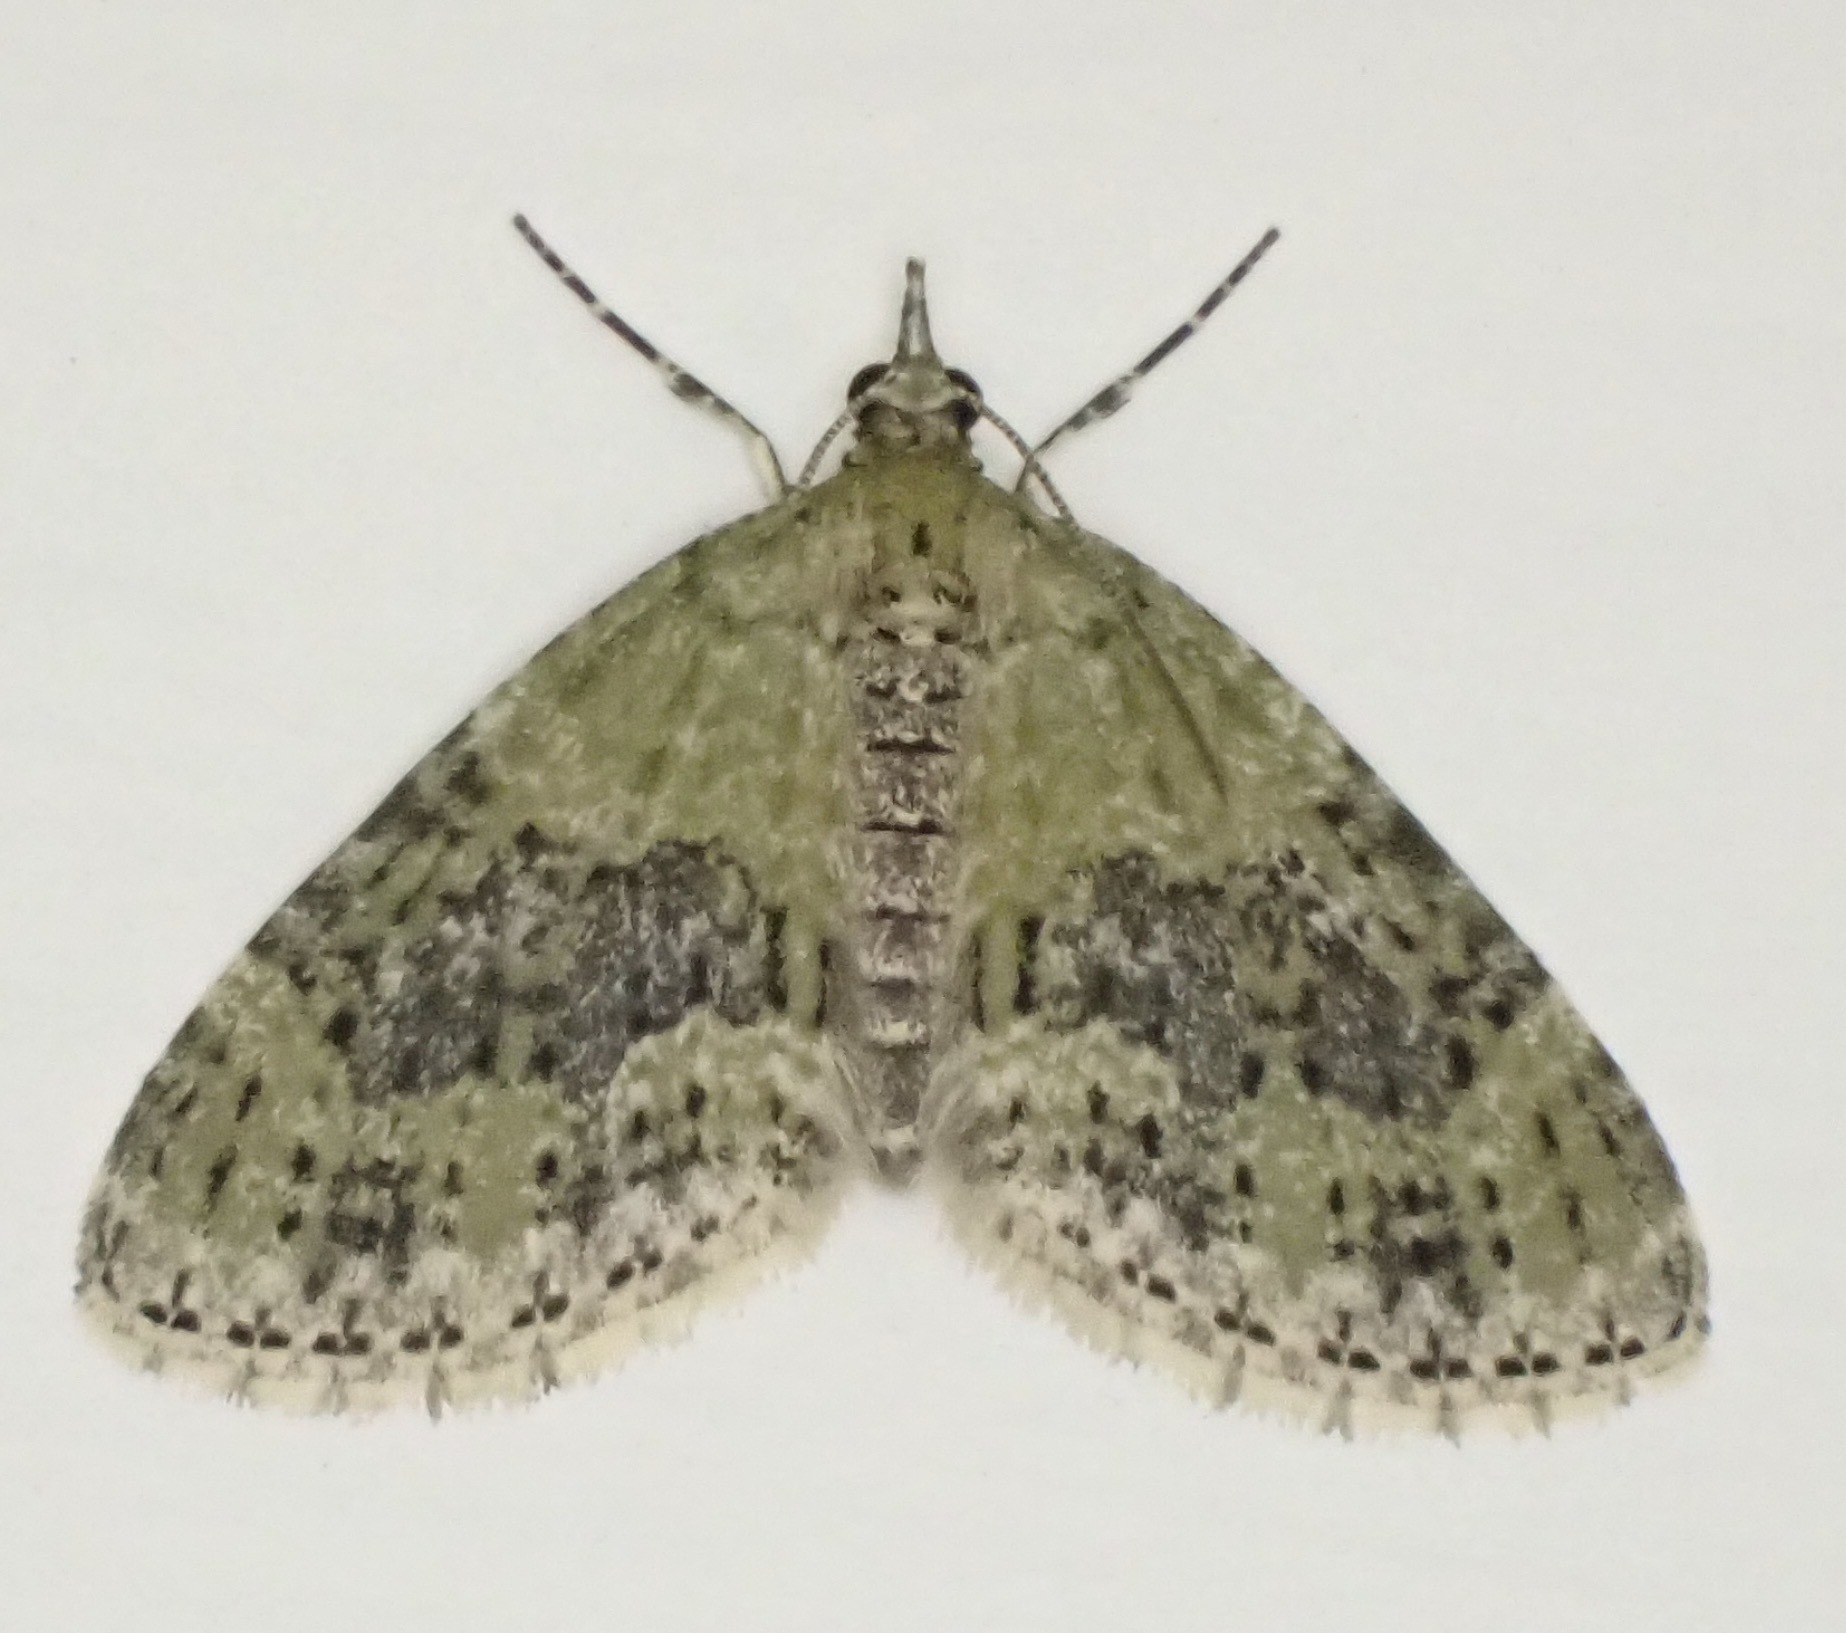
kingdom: Animalia
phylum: Arthropoda
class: Insecta
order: Lepidoptera
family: Geometridae
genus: Acasis
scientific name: Acasis viretata
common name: Yellow-barred brindle
